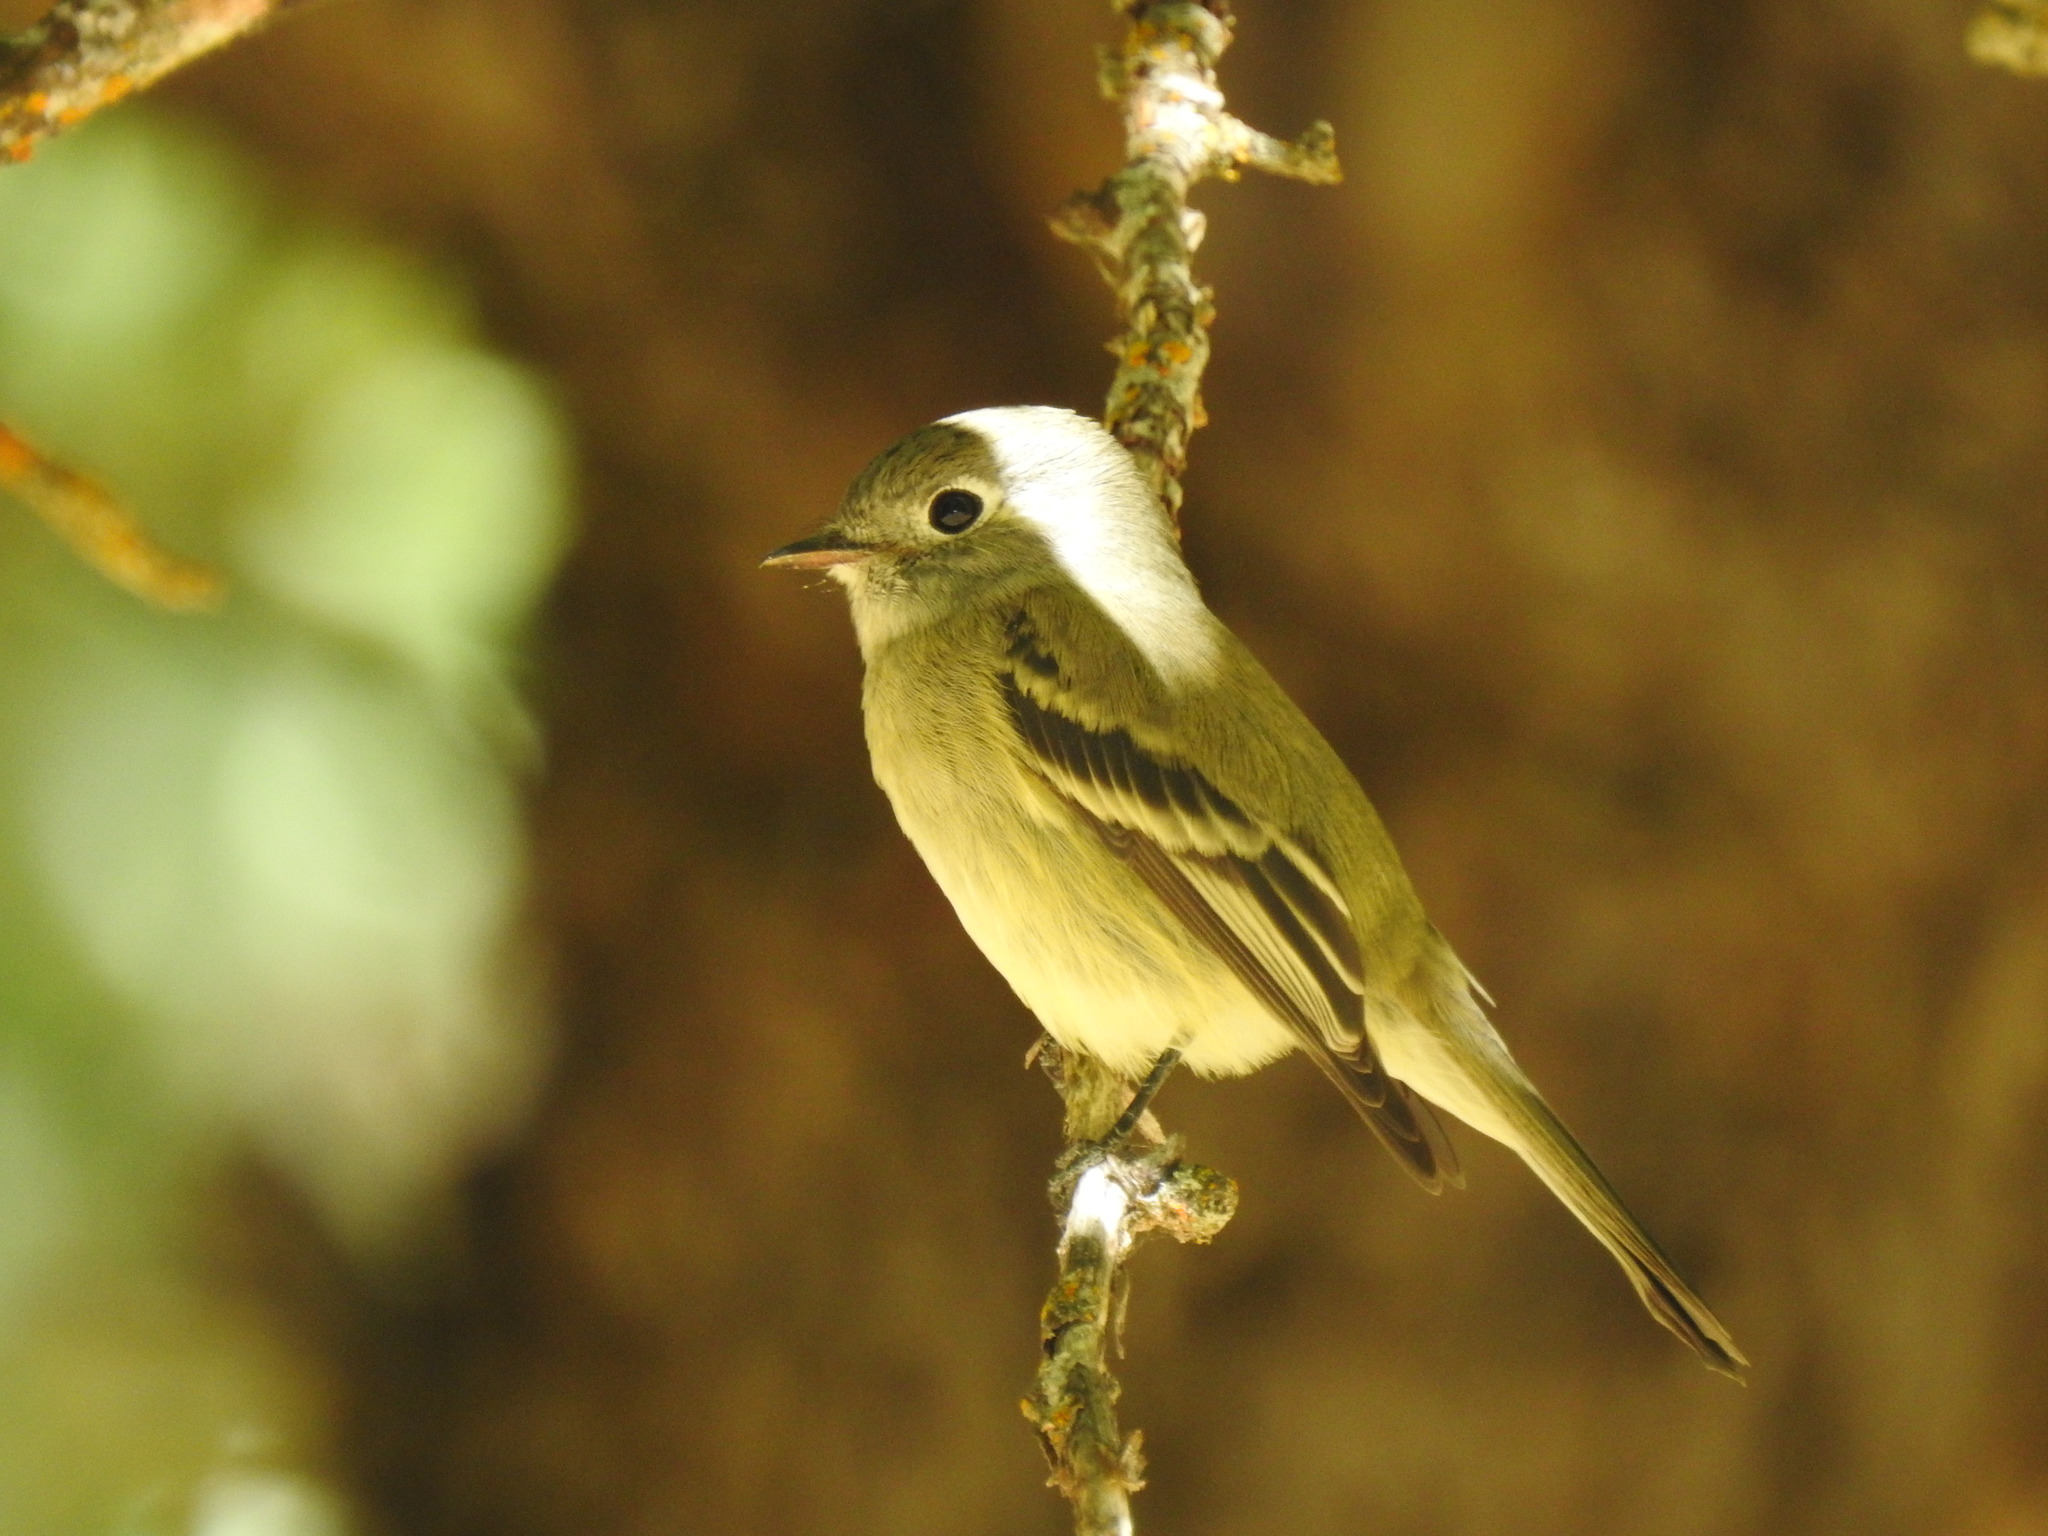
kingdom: Animalia
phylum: Chordata
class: Aves
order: Passeriformes
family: Tyrannidae
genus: Empidonax
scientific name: Empidonax hammondii
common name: Hammond's flycatcher
